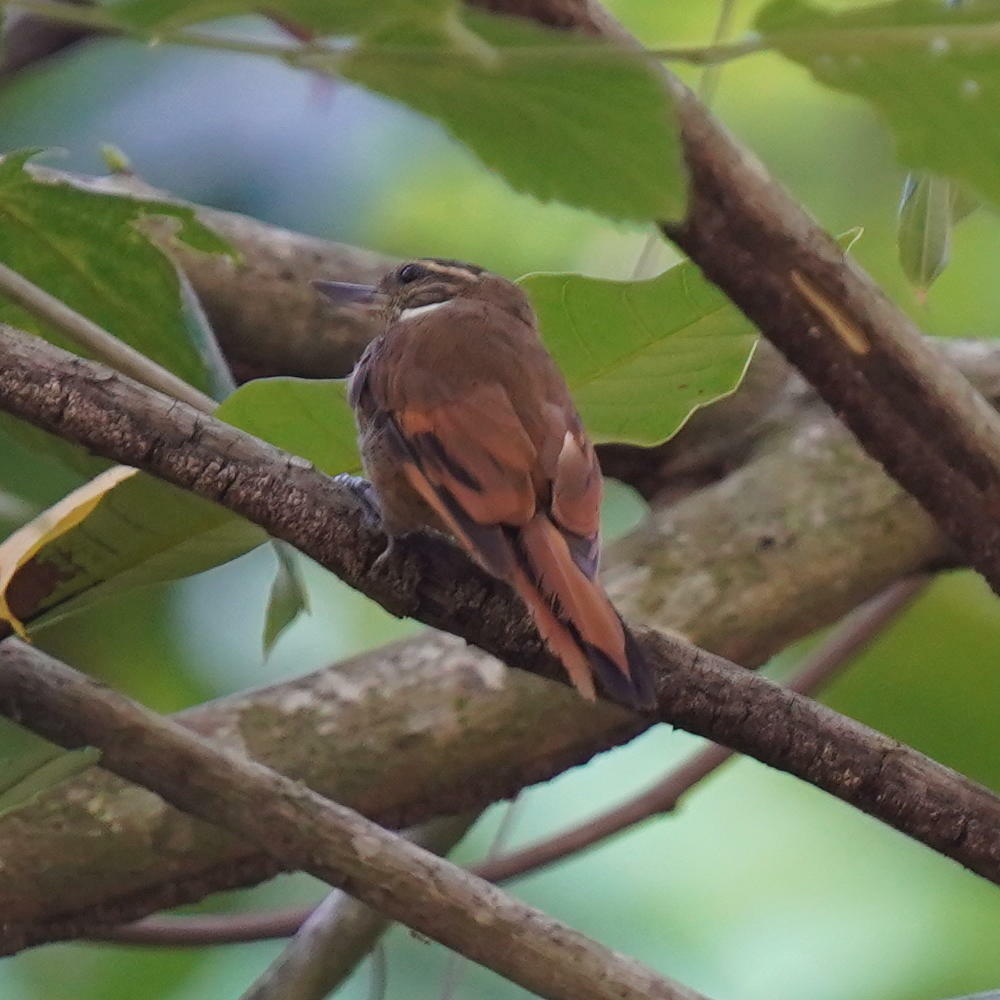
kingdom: Animalia
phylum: Chordata
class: Aves
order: Passeriformes
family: Furnariidae
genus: Xenops
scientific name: Xenops minutus
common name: Plain xenops
